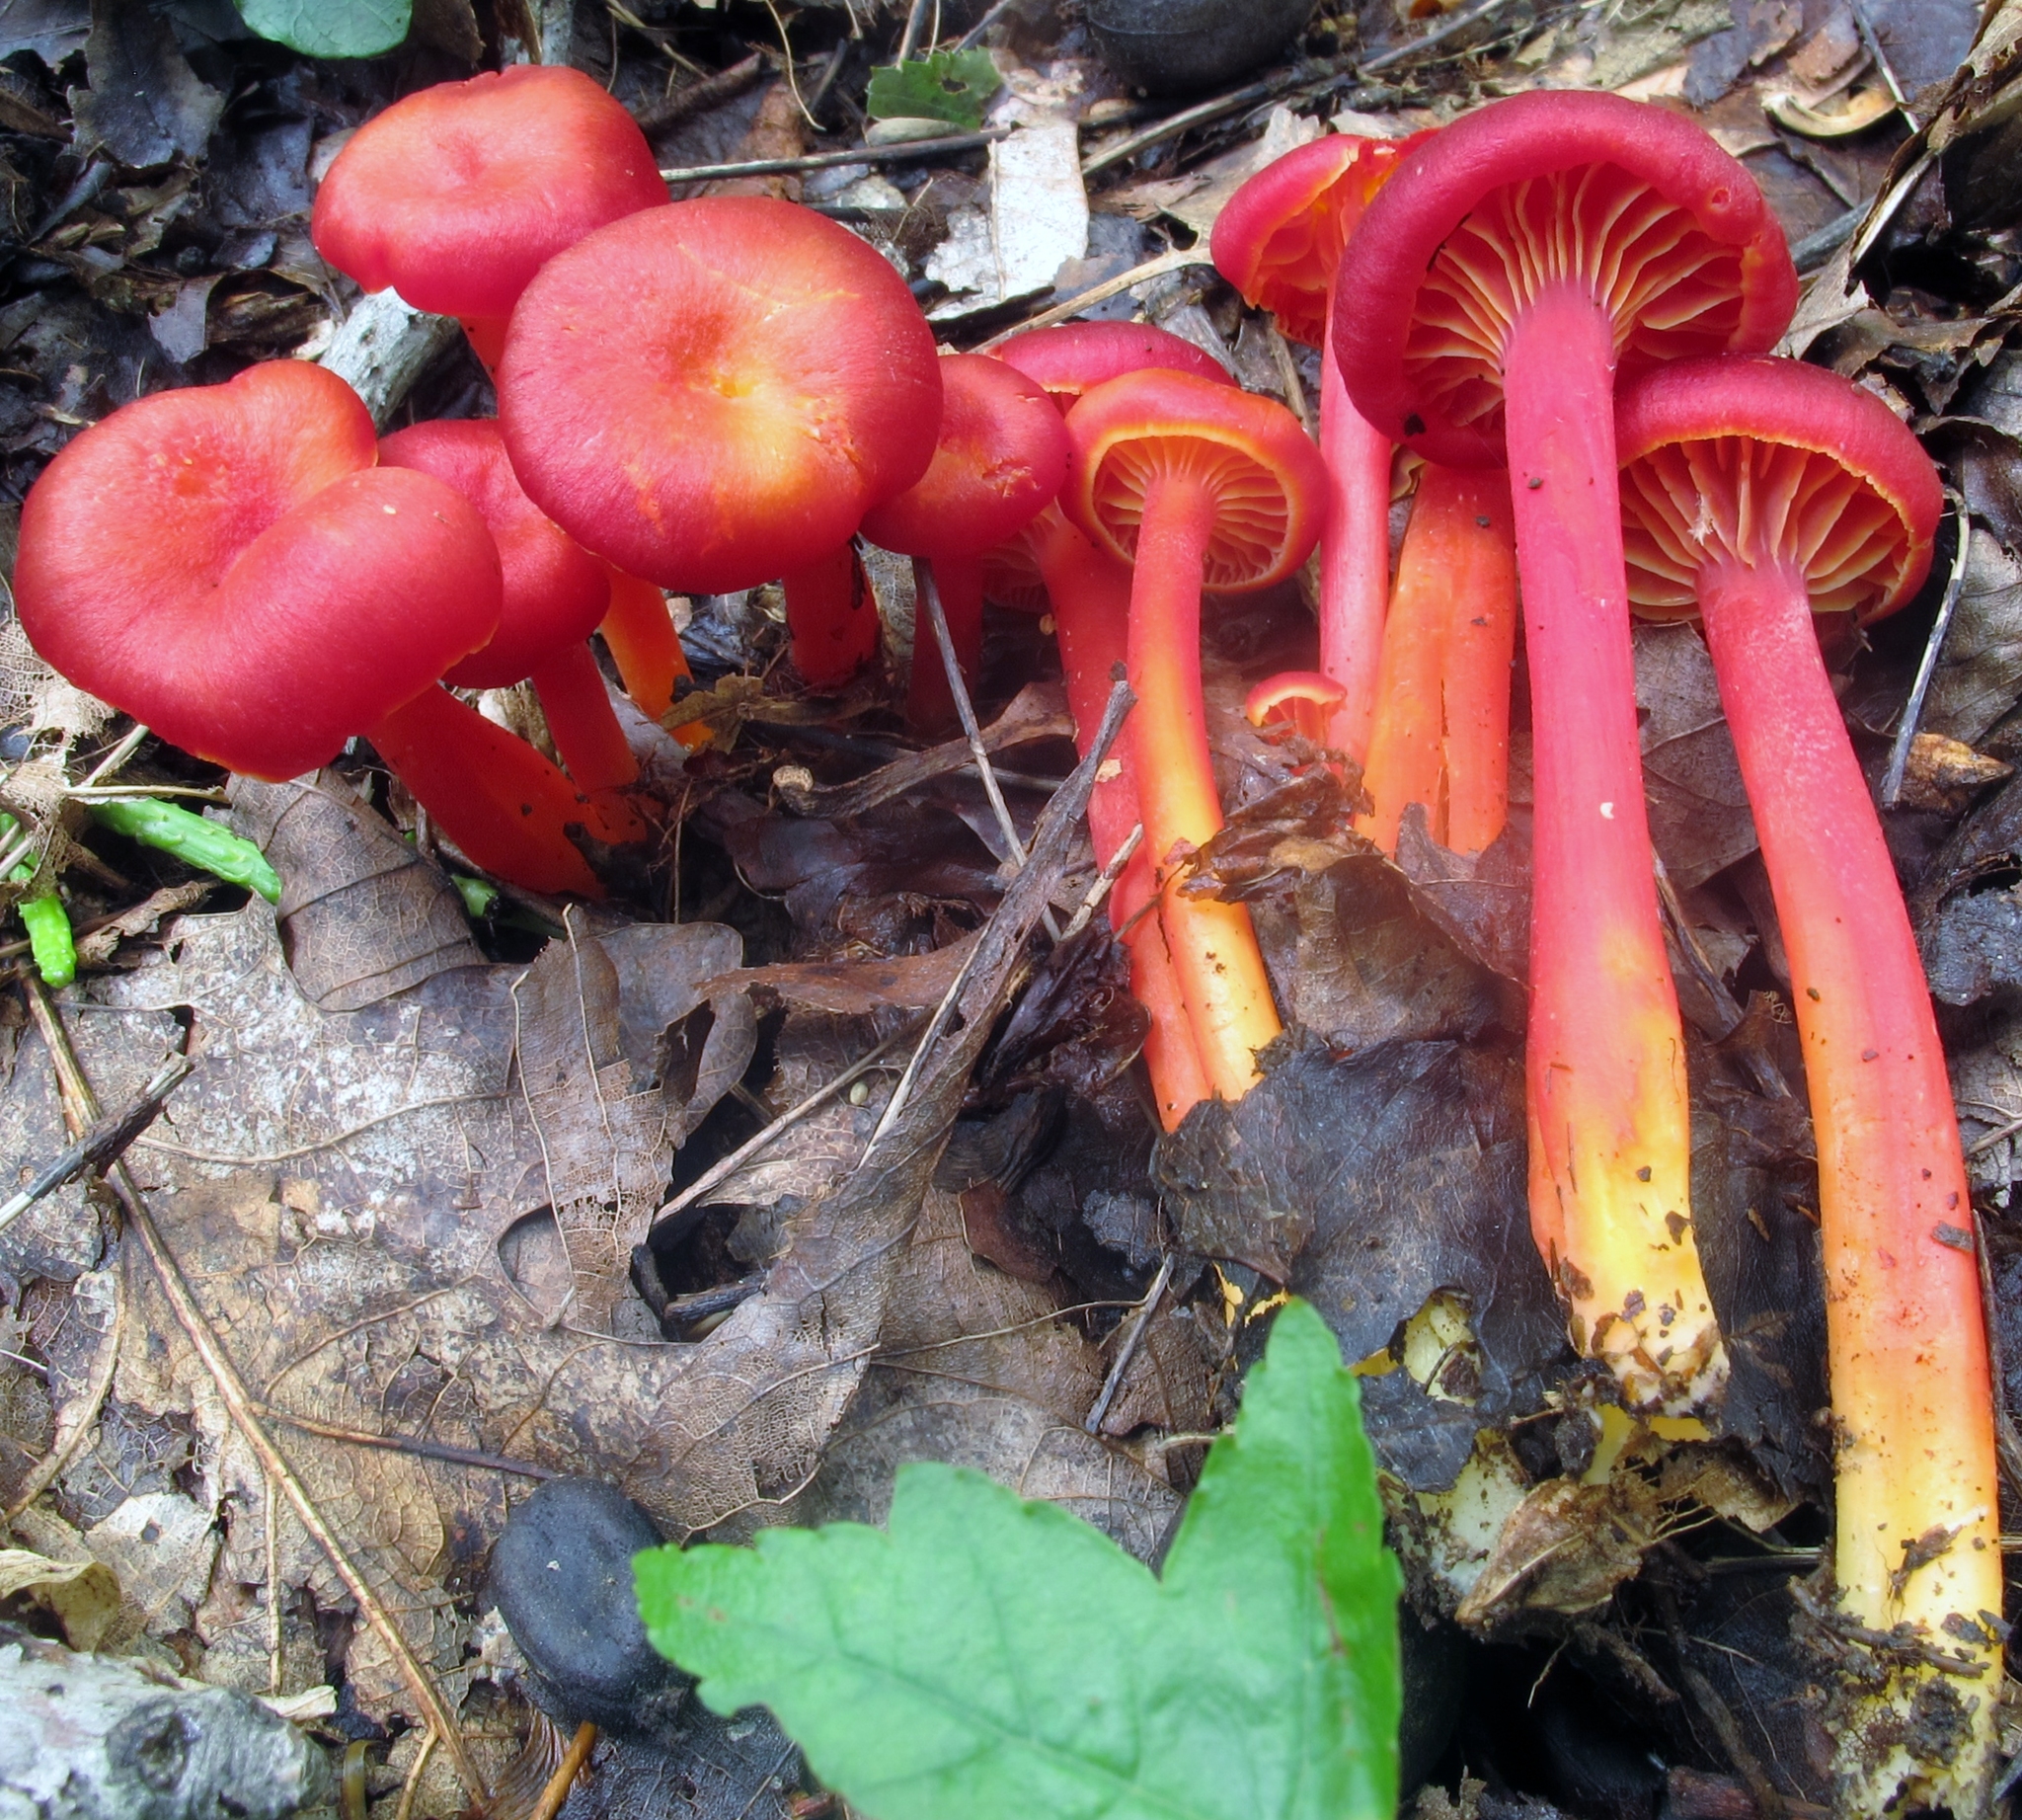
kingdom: Fungi
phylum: Basidiomycota
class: Agaricomycetes
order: Agaricales
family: Hygrophoraceae
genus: Hygrocybe
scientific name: Hygrocybe appalachianensis
